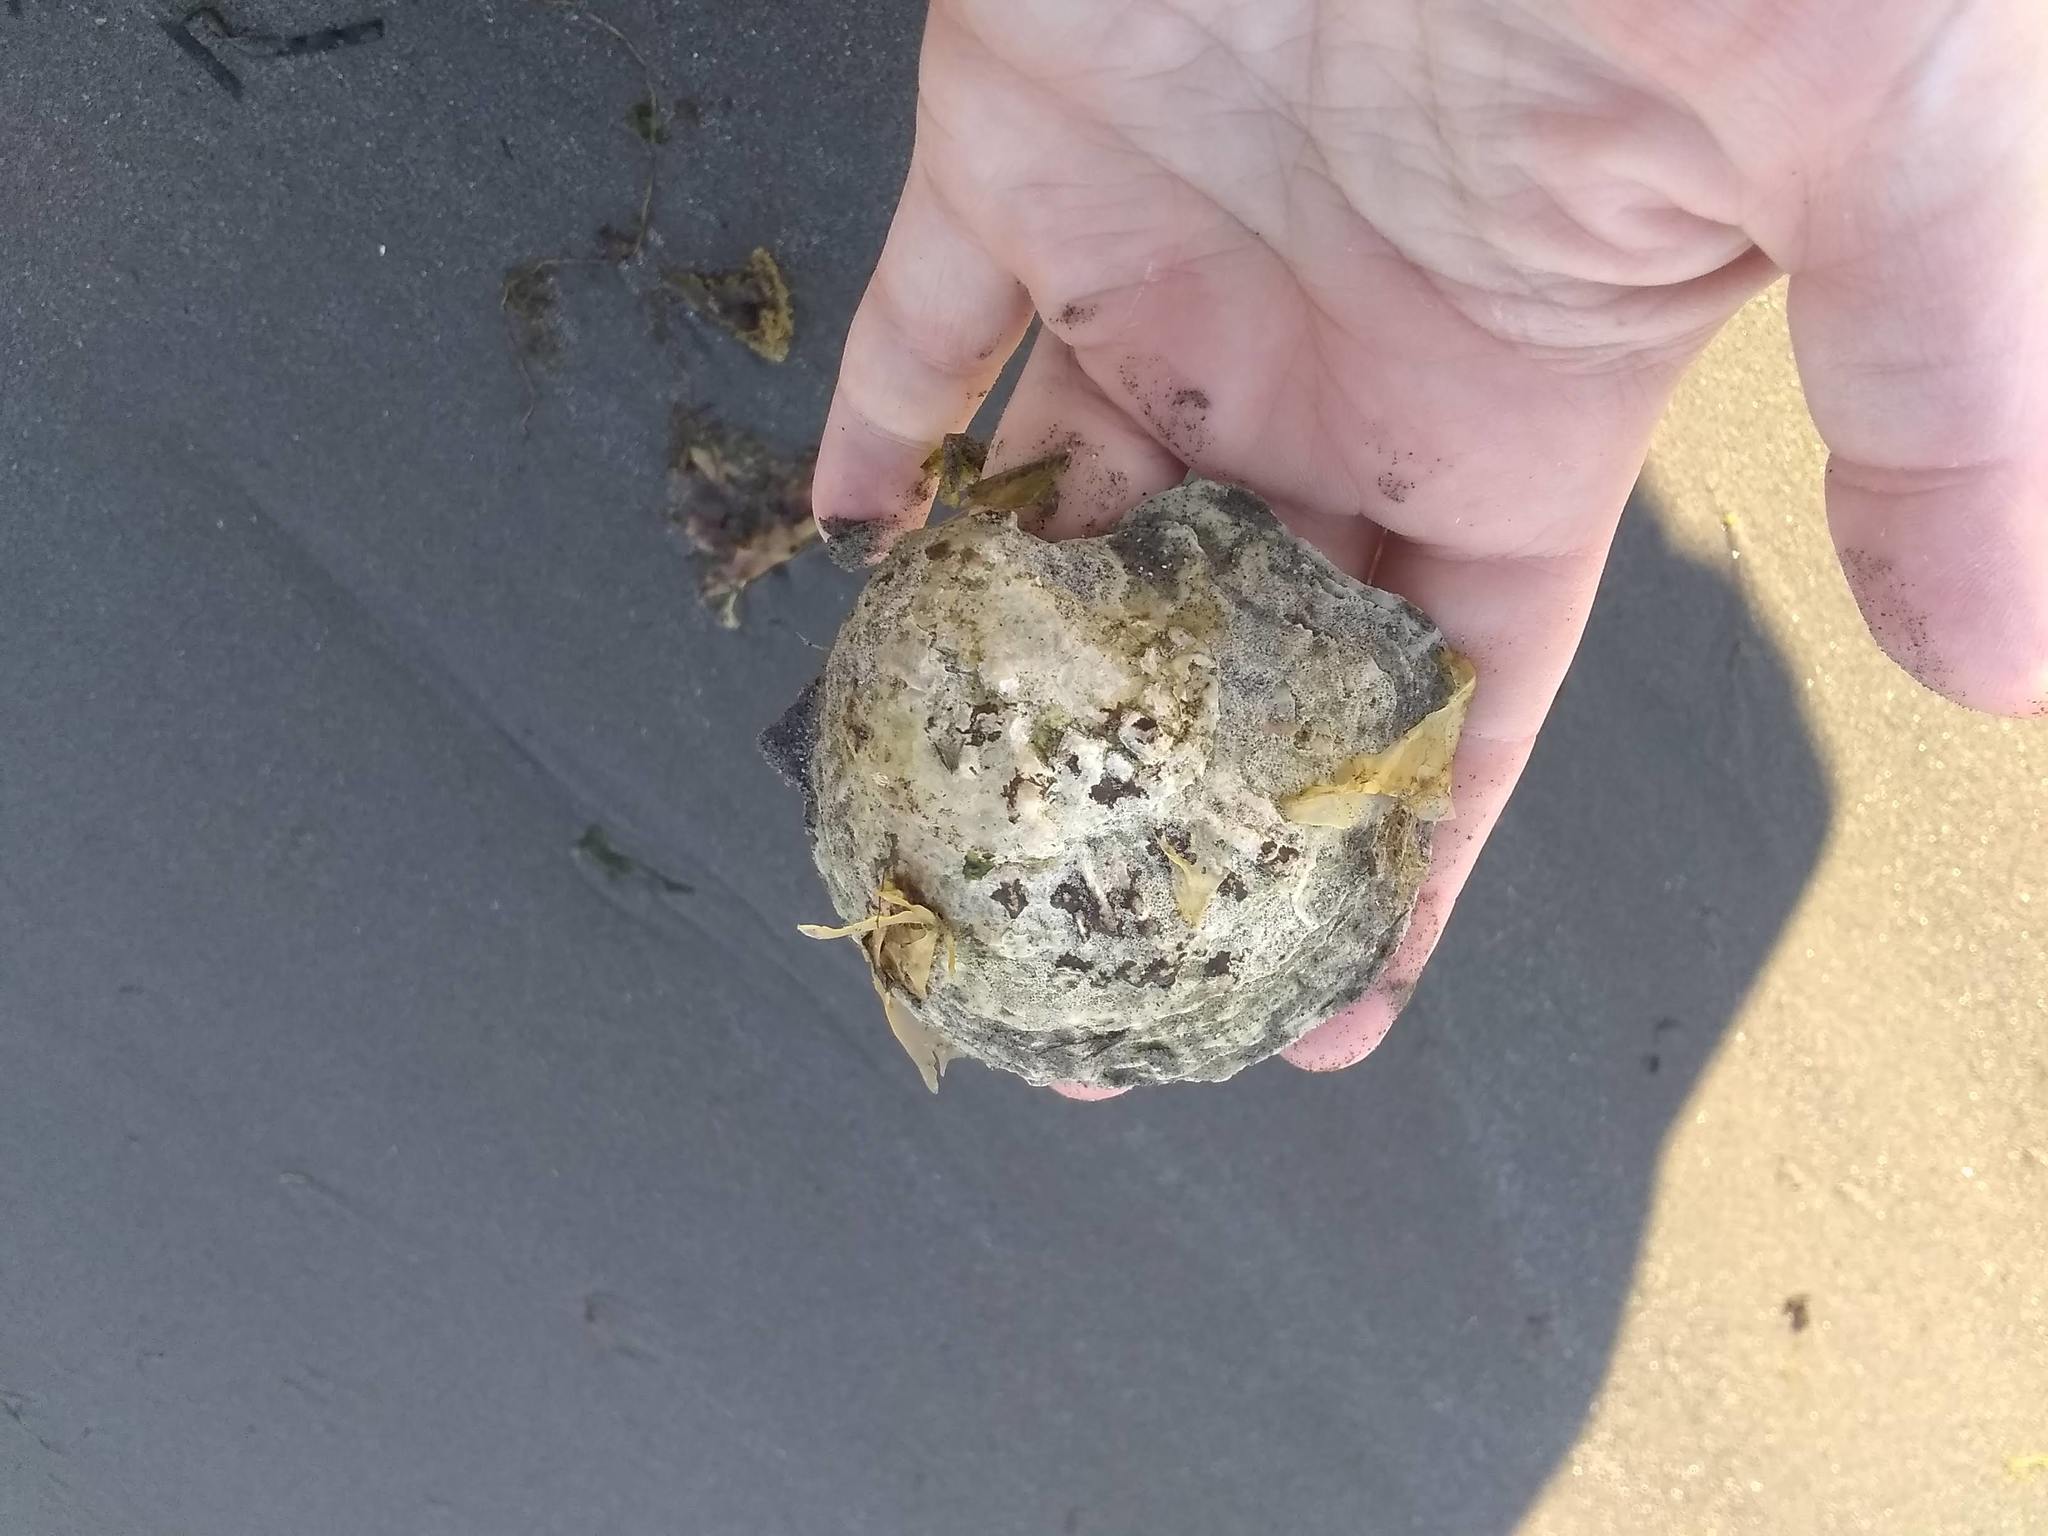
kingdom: Animalia
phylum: Mollusca
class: Bivalvia
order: Ostreida
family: Ostreidae
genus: Ostrea
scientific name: Ostrea edulis
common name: Flat oyster
